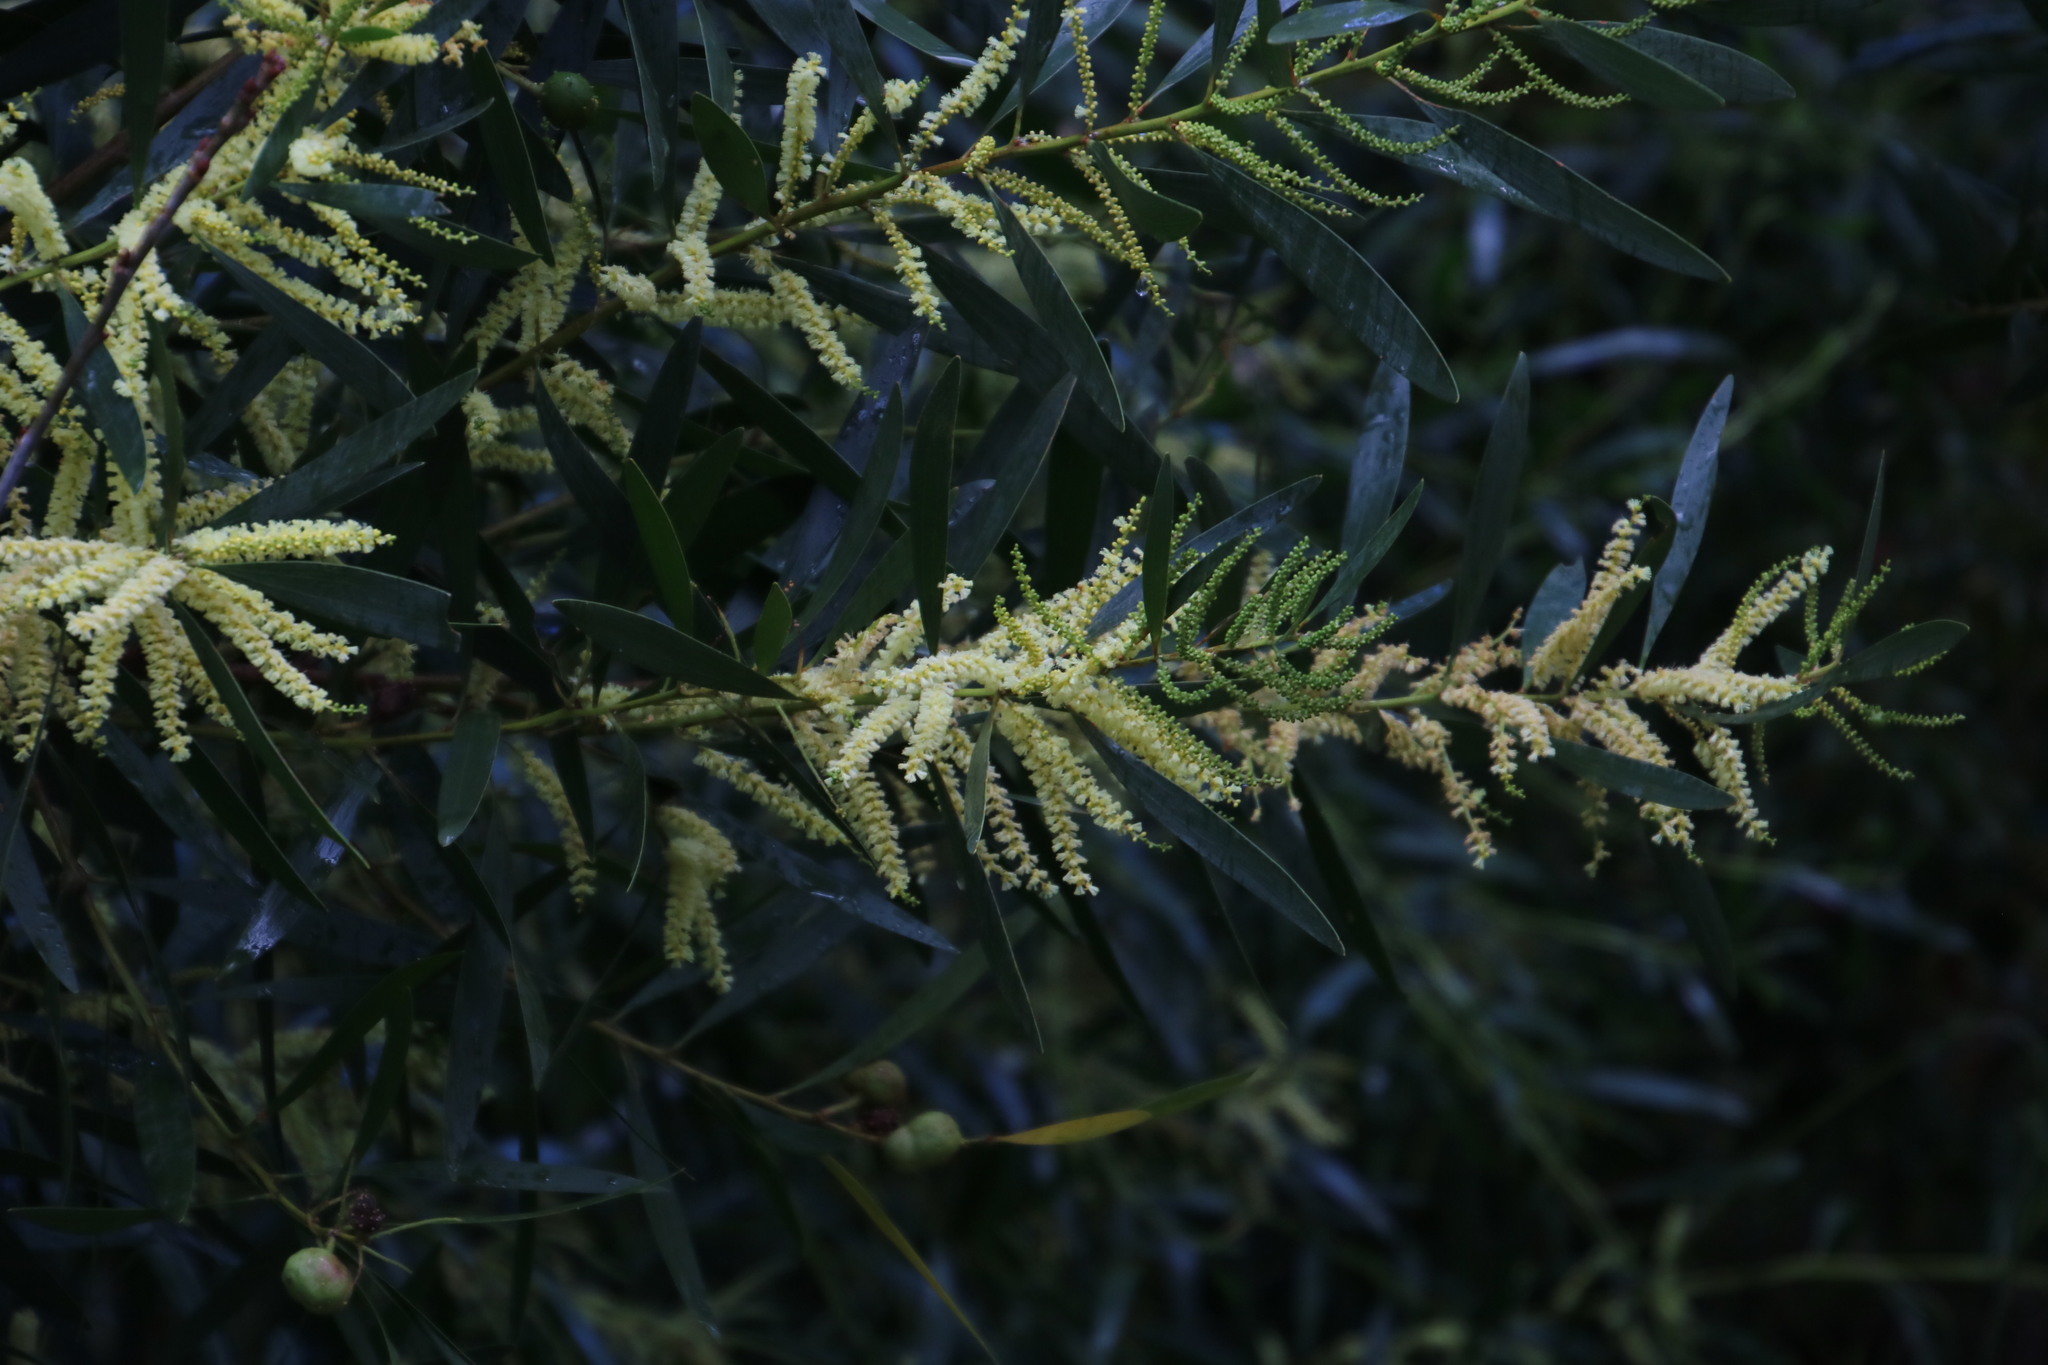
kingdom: Plantae
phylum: Tracheophyta
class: Magnoliopsida
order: Fabales
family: Fabaceae
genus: Acacia
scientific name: Acacia longifolia
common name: Sydney golden wattle
